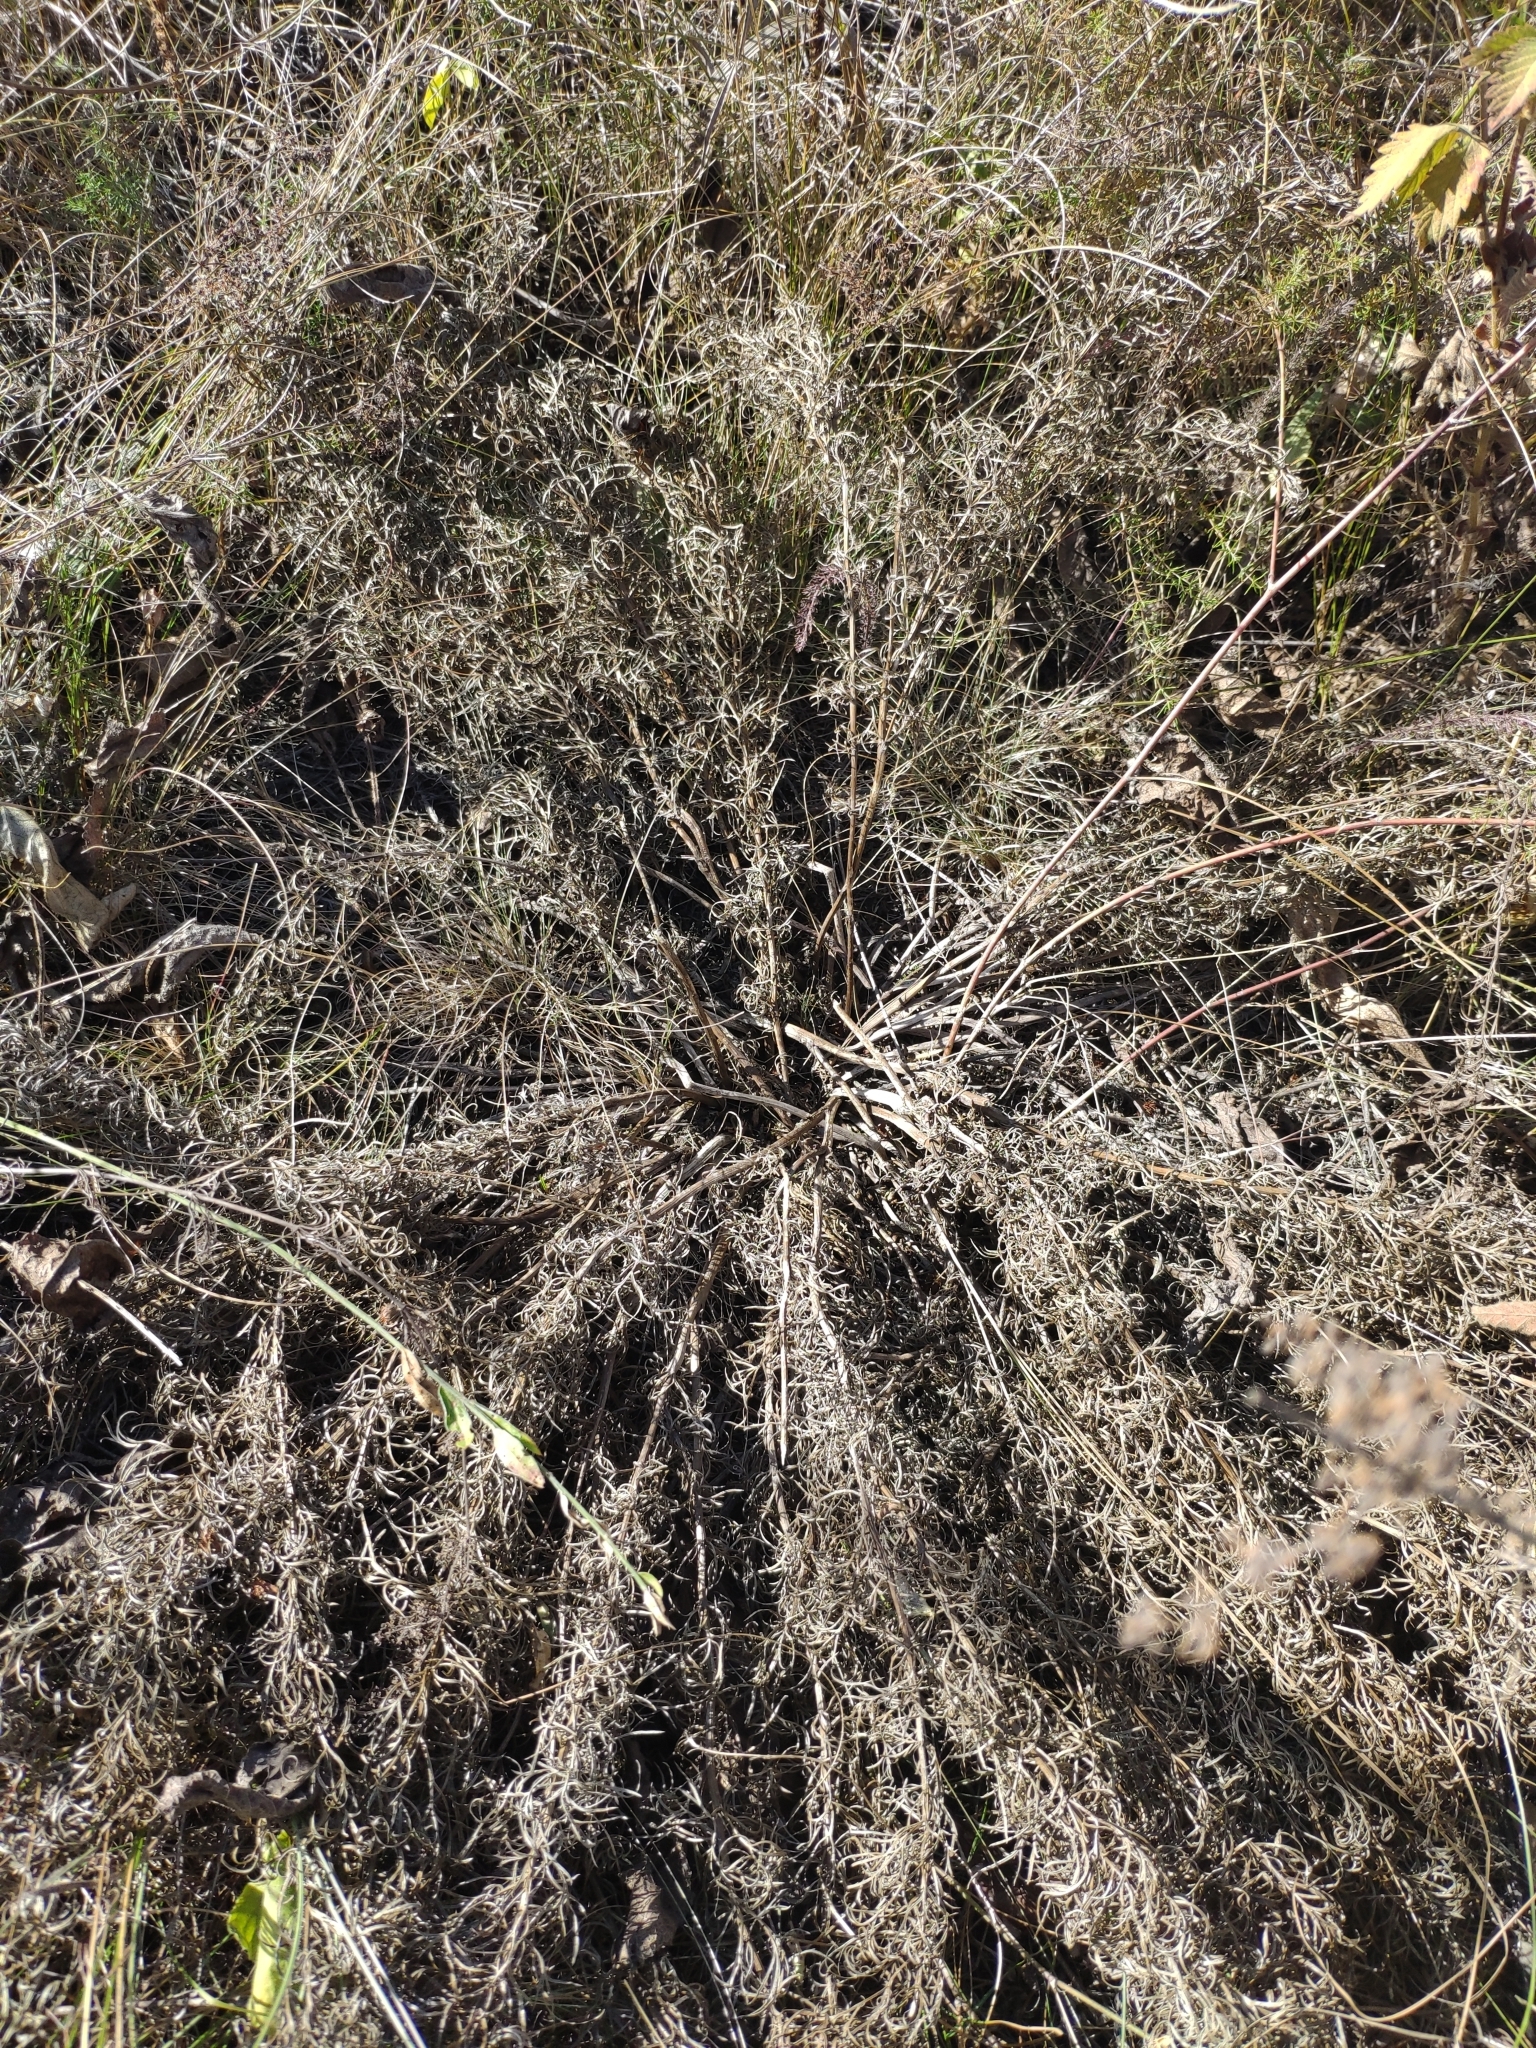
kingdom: Plantae
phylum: Tracheophyta
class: Magnoliopsida
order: Ranunculales
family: Ranunculaceae
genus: Adonis
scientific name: Adonis vernalis
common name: Yellow pheasants-eye
